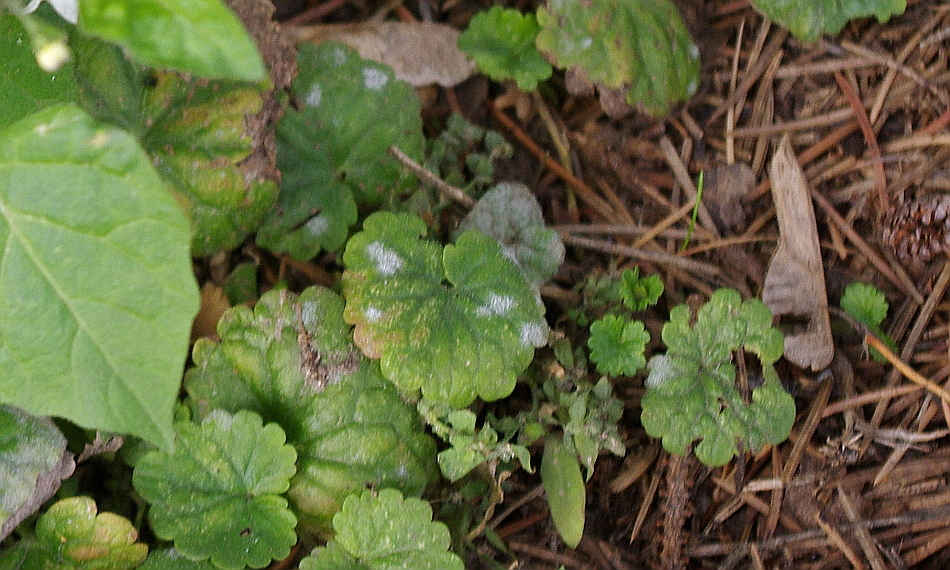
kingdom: Fungi
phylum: Ascomycota
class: Leotiomycetes
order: Helotiales
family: Erysiphaceae
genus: Neoerysiphe
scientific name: Neoerysiphe galeopsidis
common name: Mint mildew
